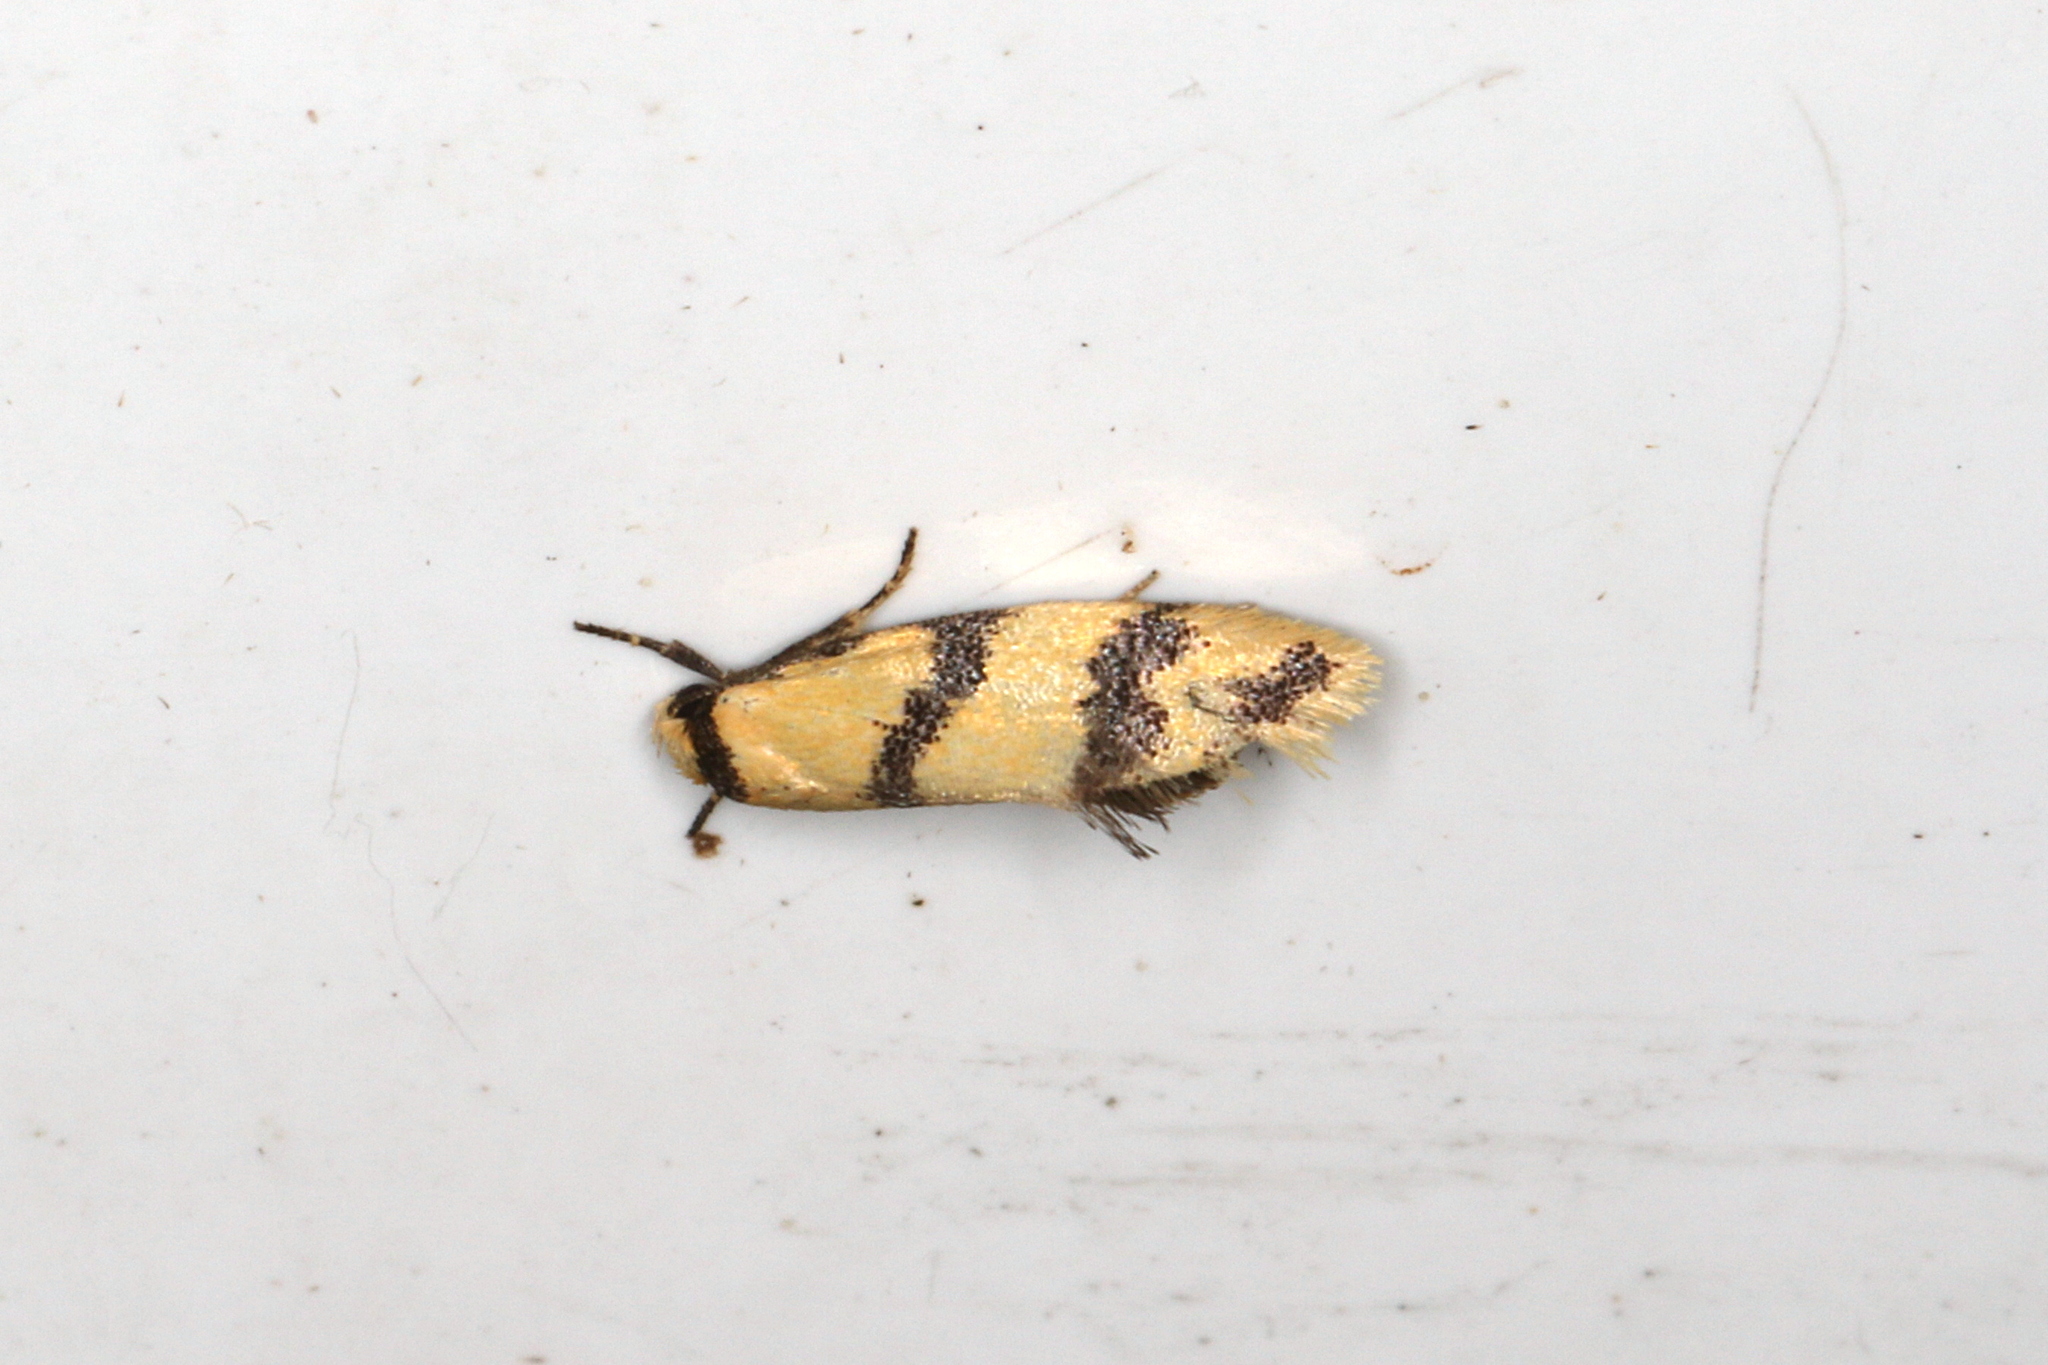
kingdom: Animalia
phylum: Arthropoda
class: Insecta
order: Lepidoptera
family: Oecophoridae
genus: Psaroxantha
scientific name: Psaroxantha basilica
